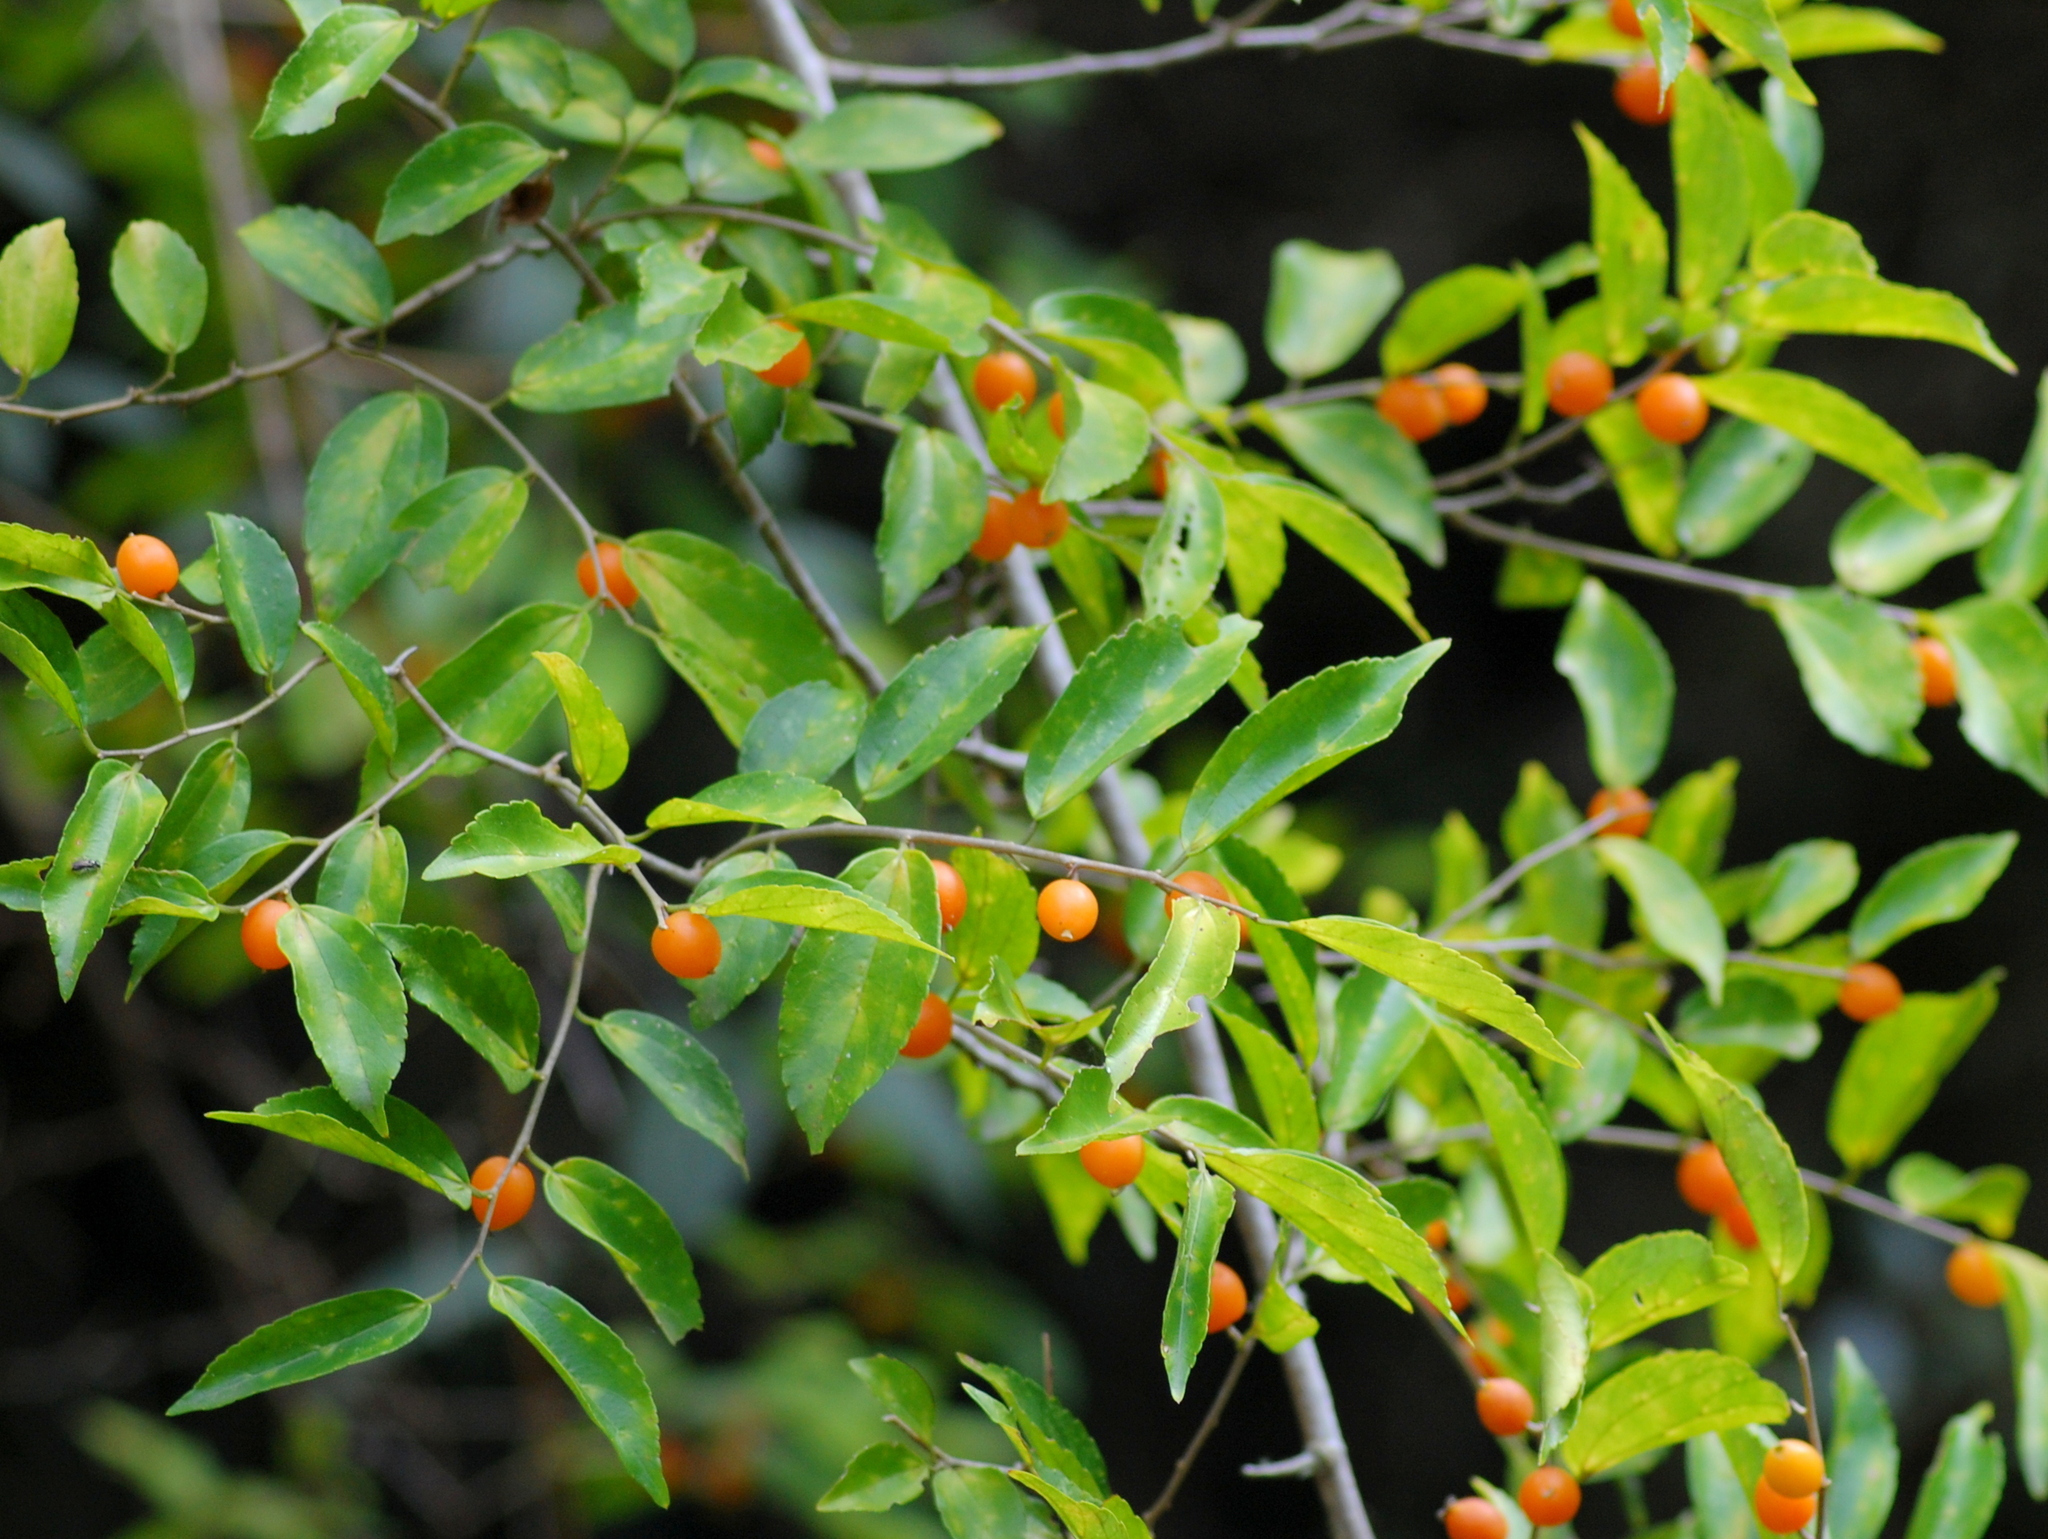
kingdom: Plantae
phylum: Tracheophyta
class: Magnoliopsida
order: Rosales
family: Cannabaceae
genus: Celtis
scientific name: Celtis iguanaea
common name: Iguana hackberry
